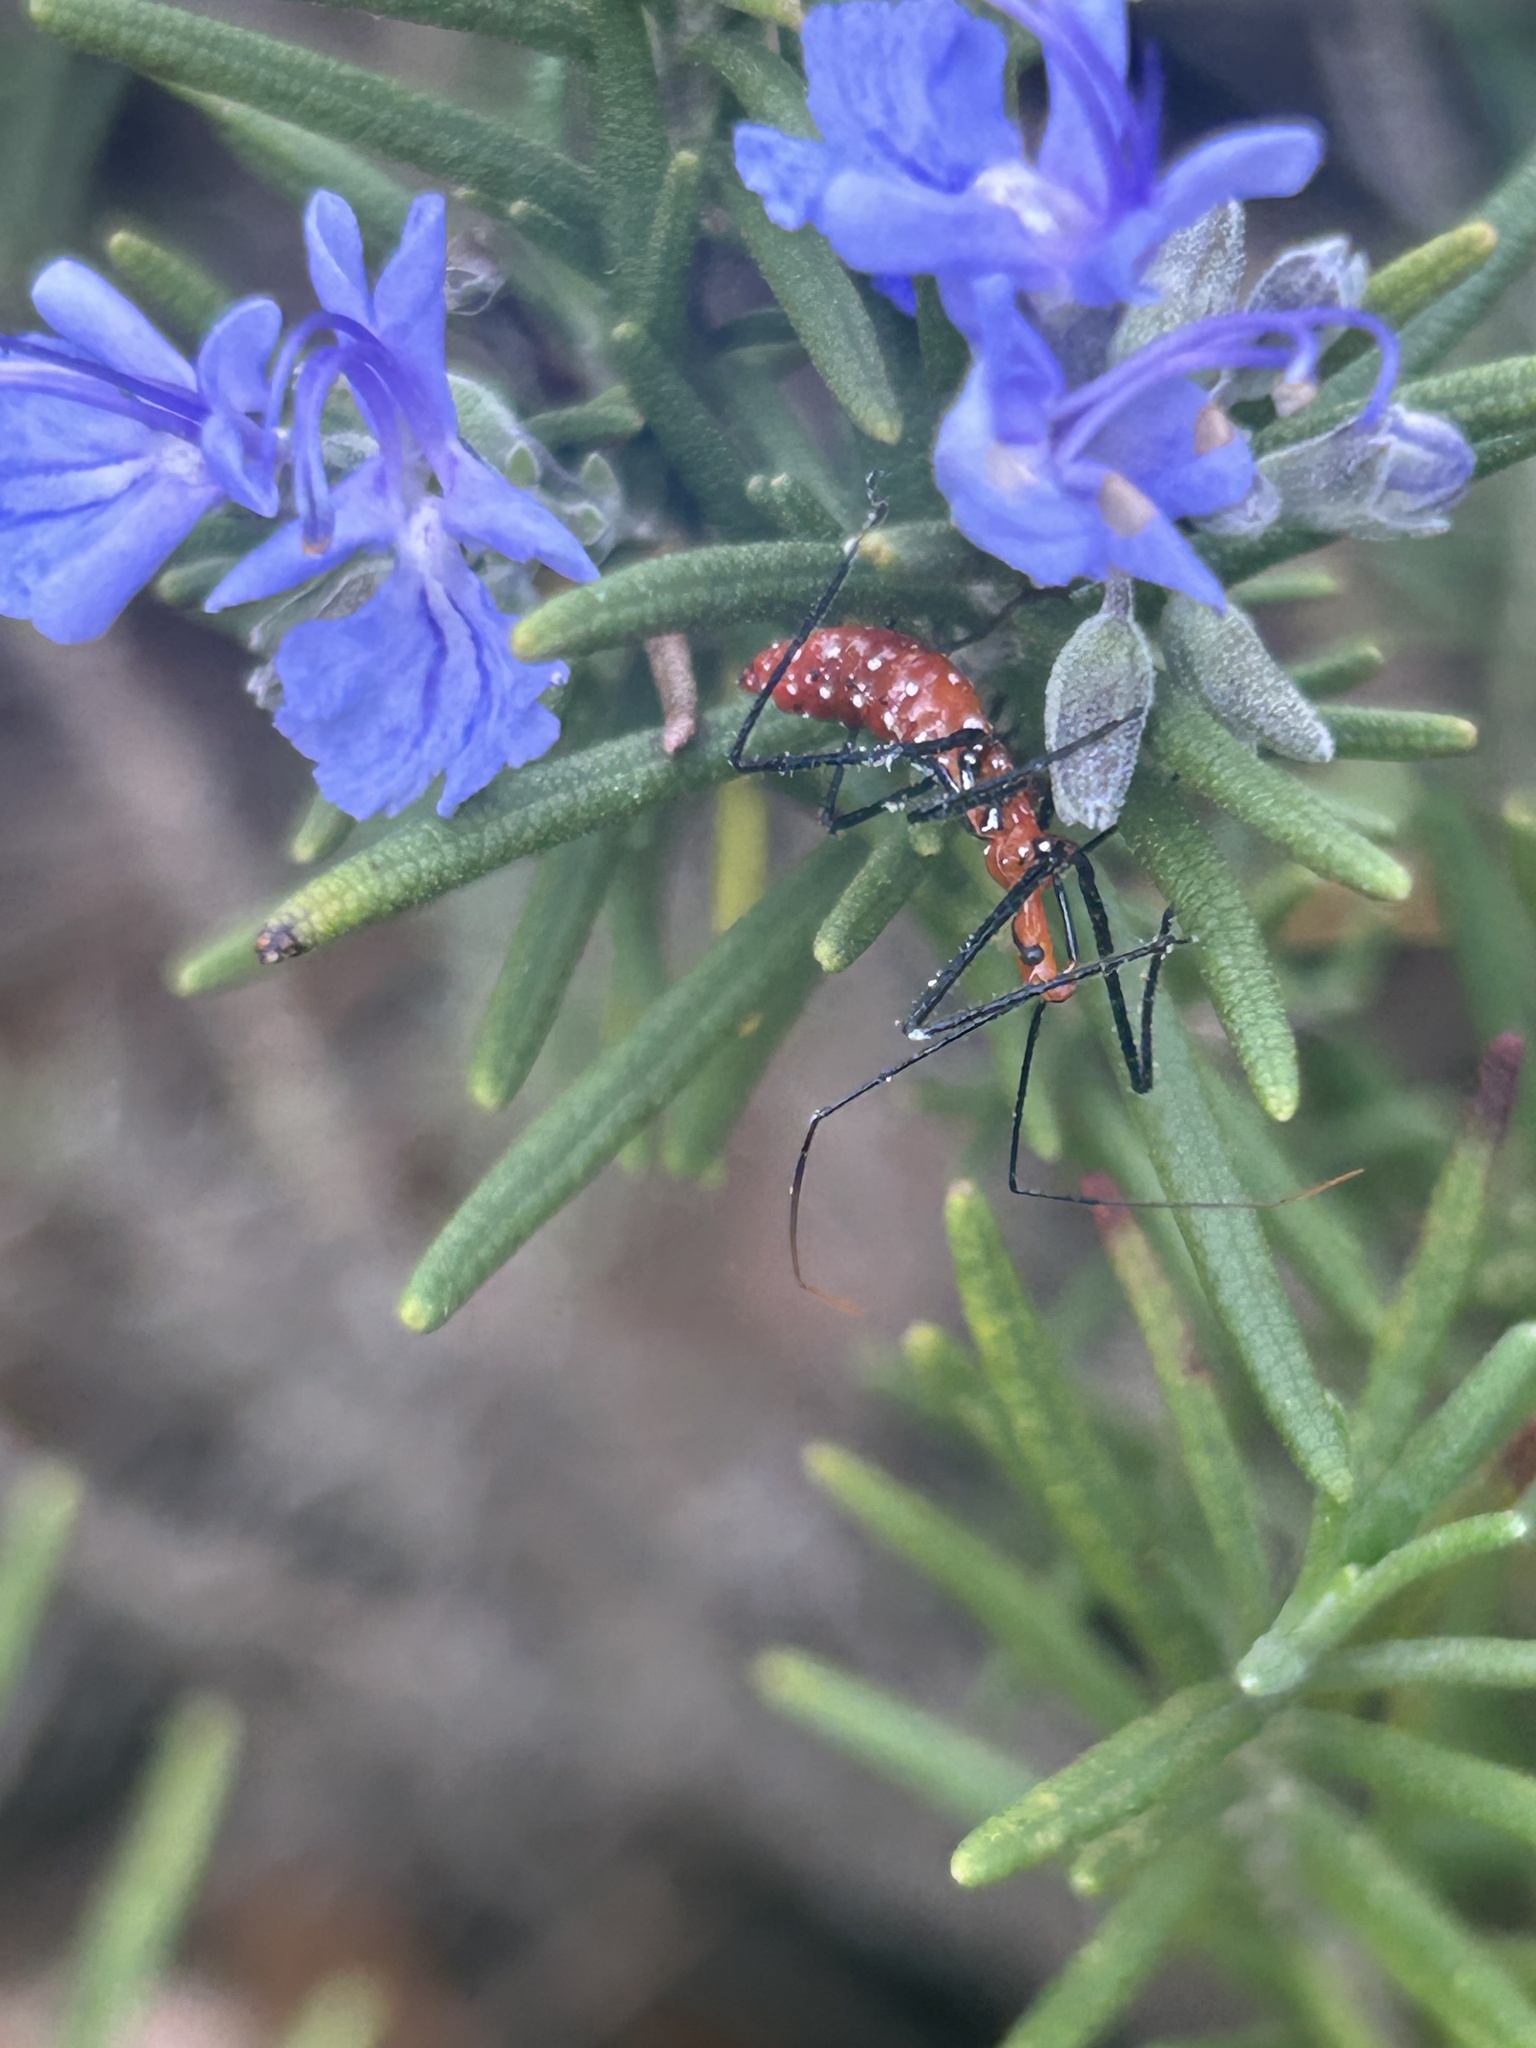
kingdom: Animalia
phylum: Arthropoda
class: Insecta
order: Hemiptera
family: Reduviidae
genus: Zelus
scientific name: Zelus longipes
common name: Milkweed assassin bug
